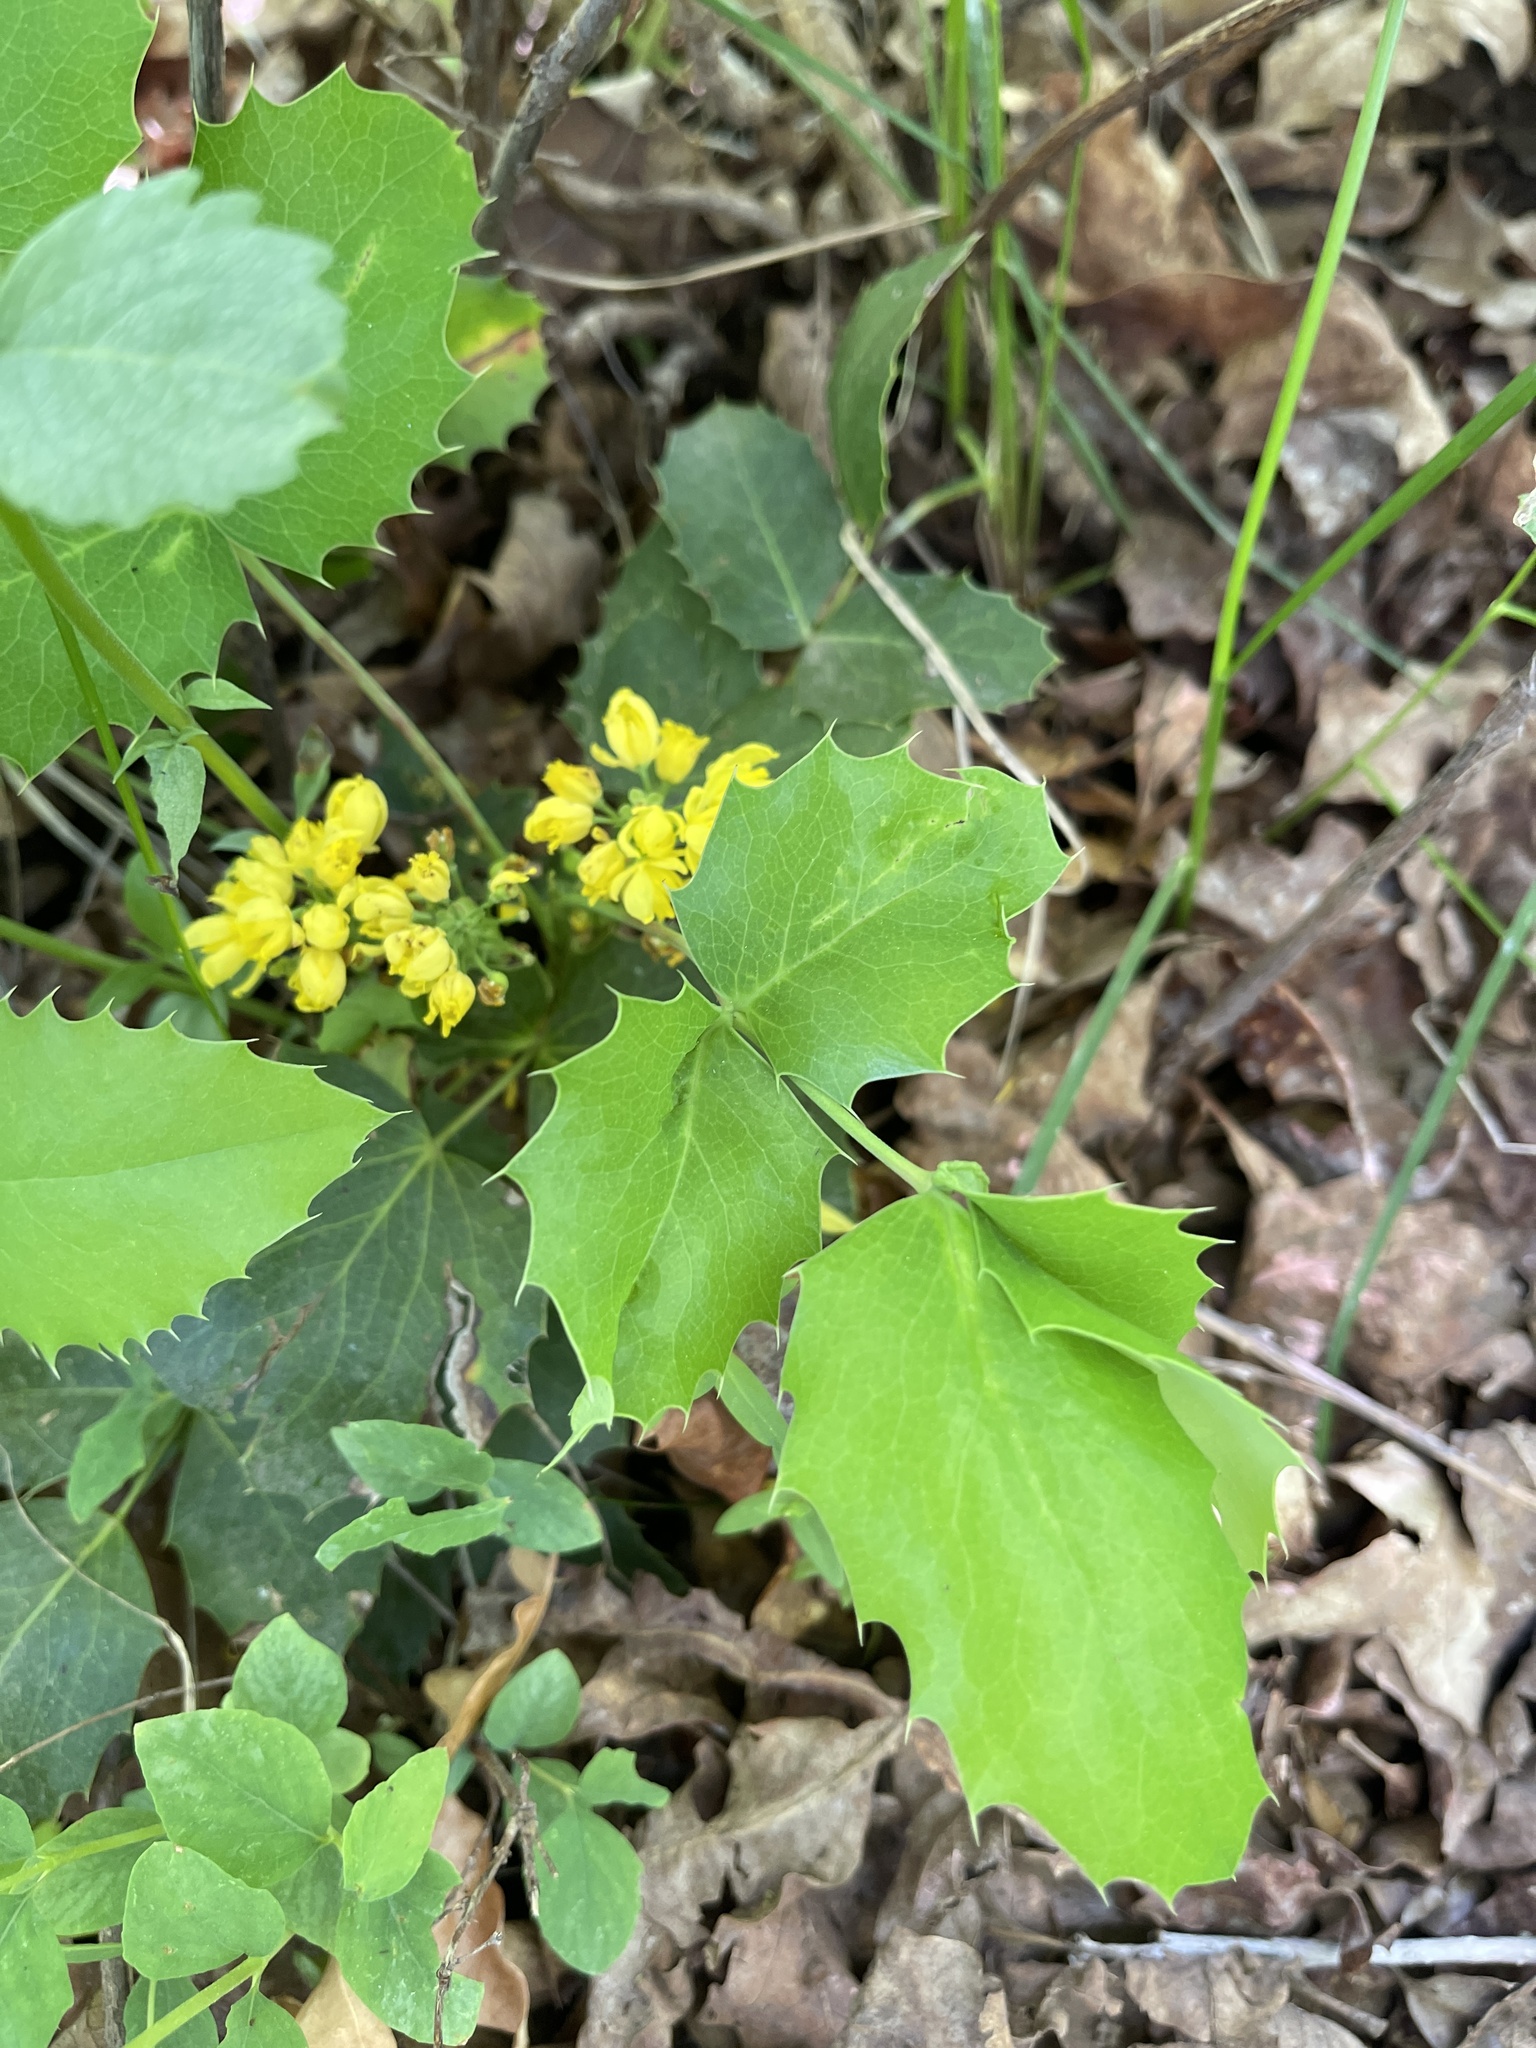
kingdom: Plantae
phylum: Tracheophyta
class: Magnoliopsida
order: Ranunculales
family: Berberidaceae
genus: Mahonia
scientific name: Mahonia repens
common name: Creeping oregon-grape
